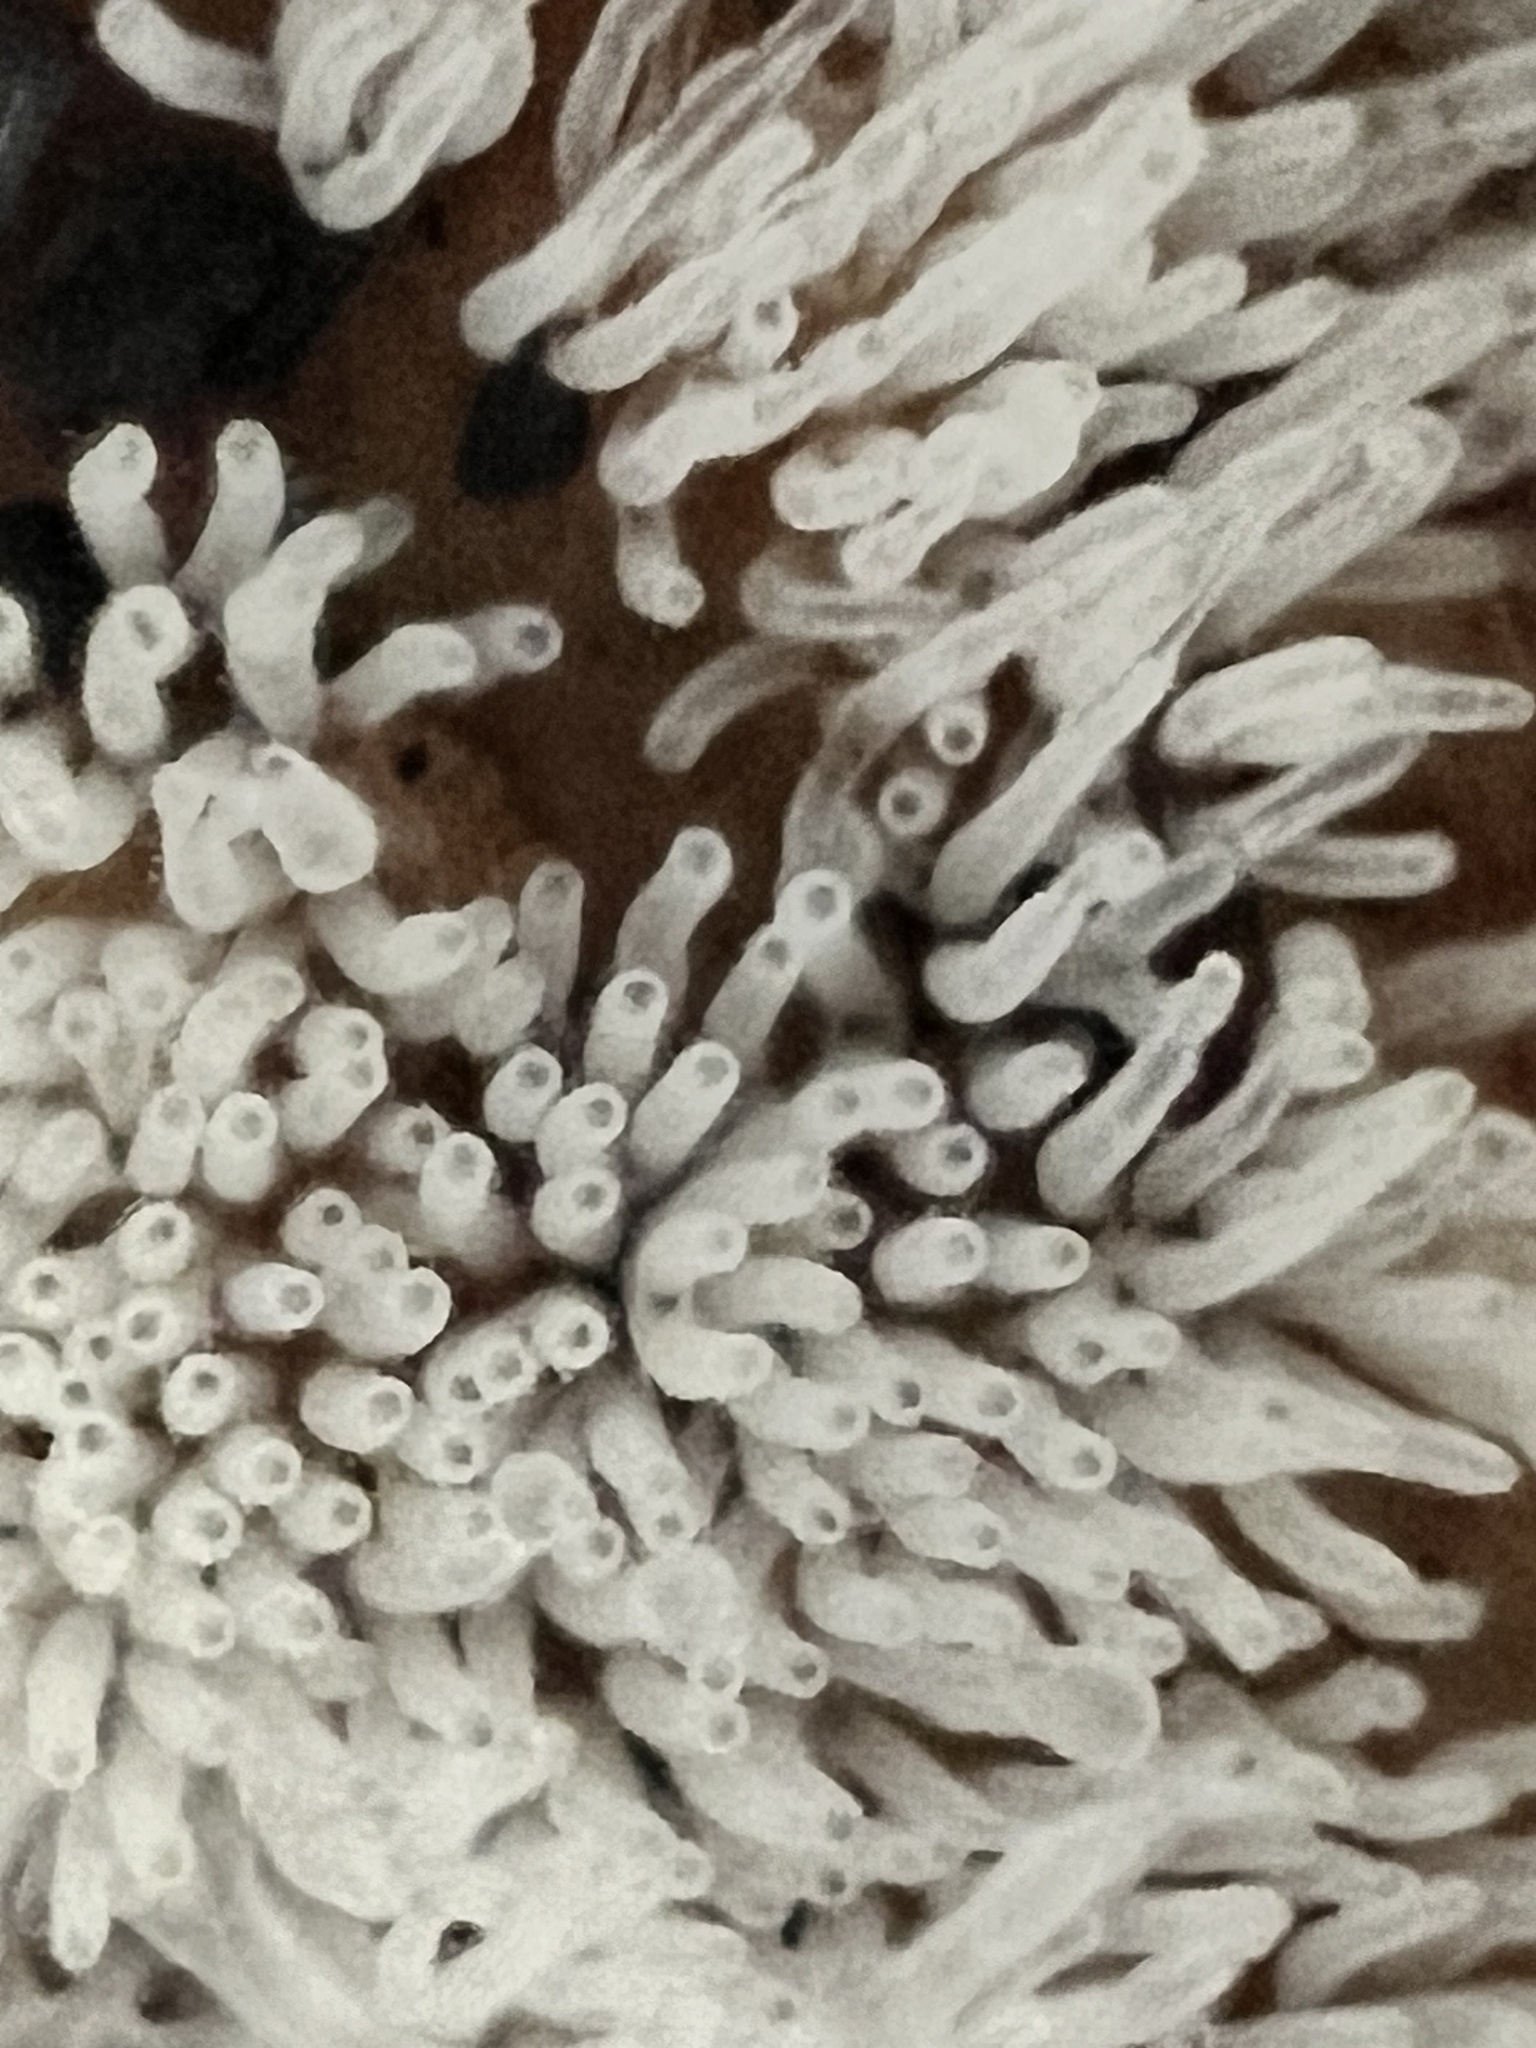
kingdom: Protozoa
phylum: Mycetozoa
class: Protosteliomycetes
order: Ceratiomyxales
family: Ceratiomyxaceae
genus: Ceratiomyxa
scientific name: Ceratiomyxa fruticulosa
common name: Honeycomb coral slime mold
